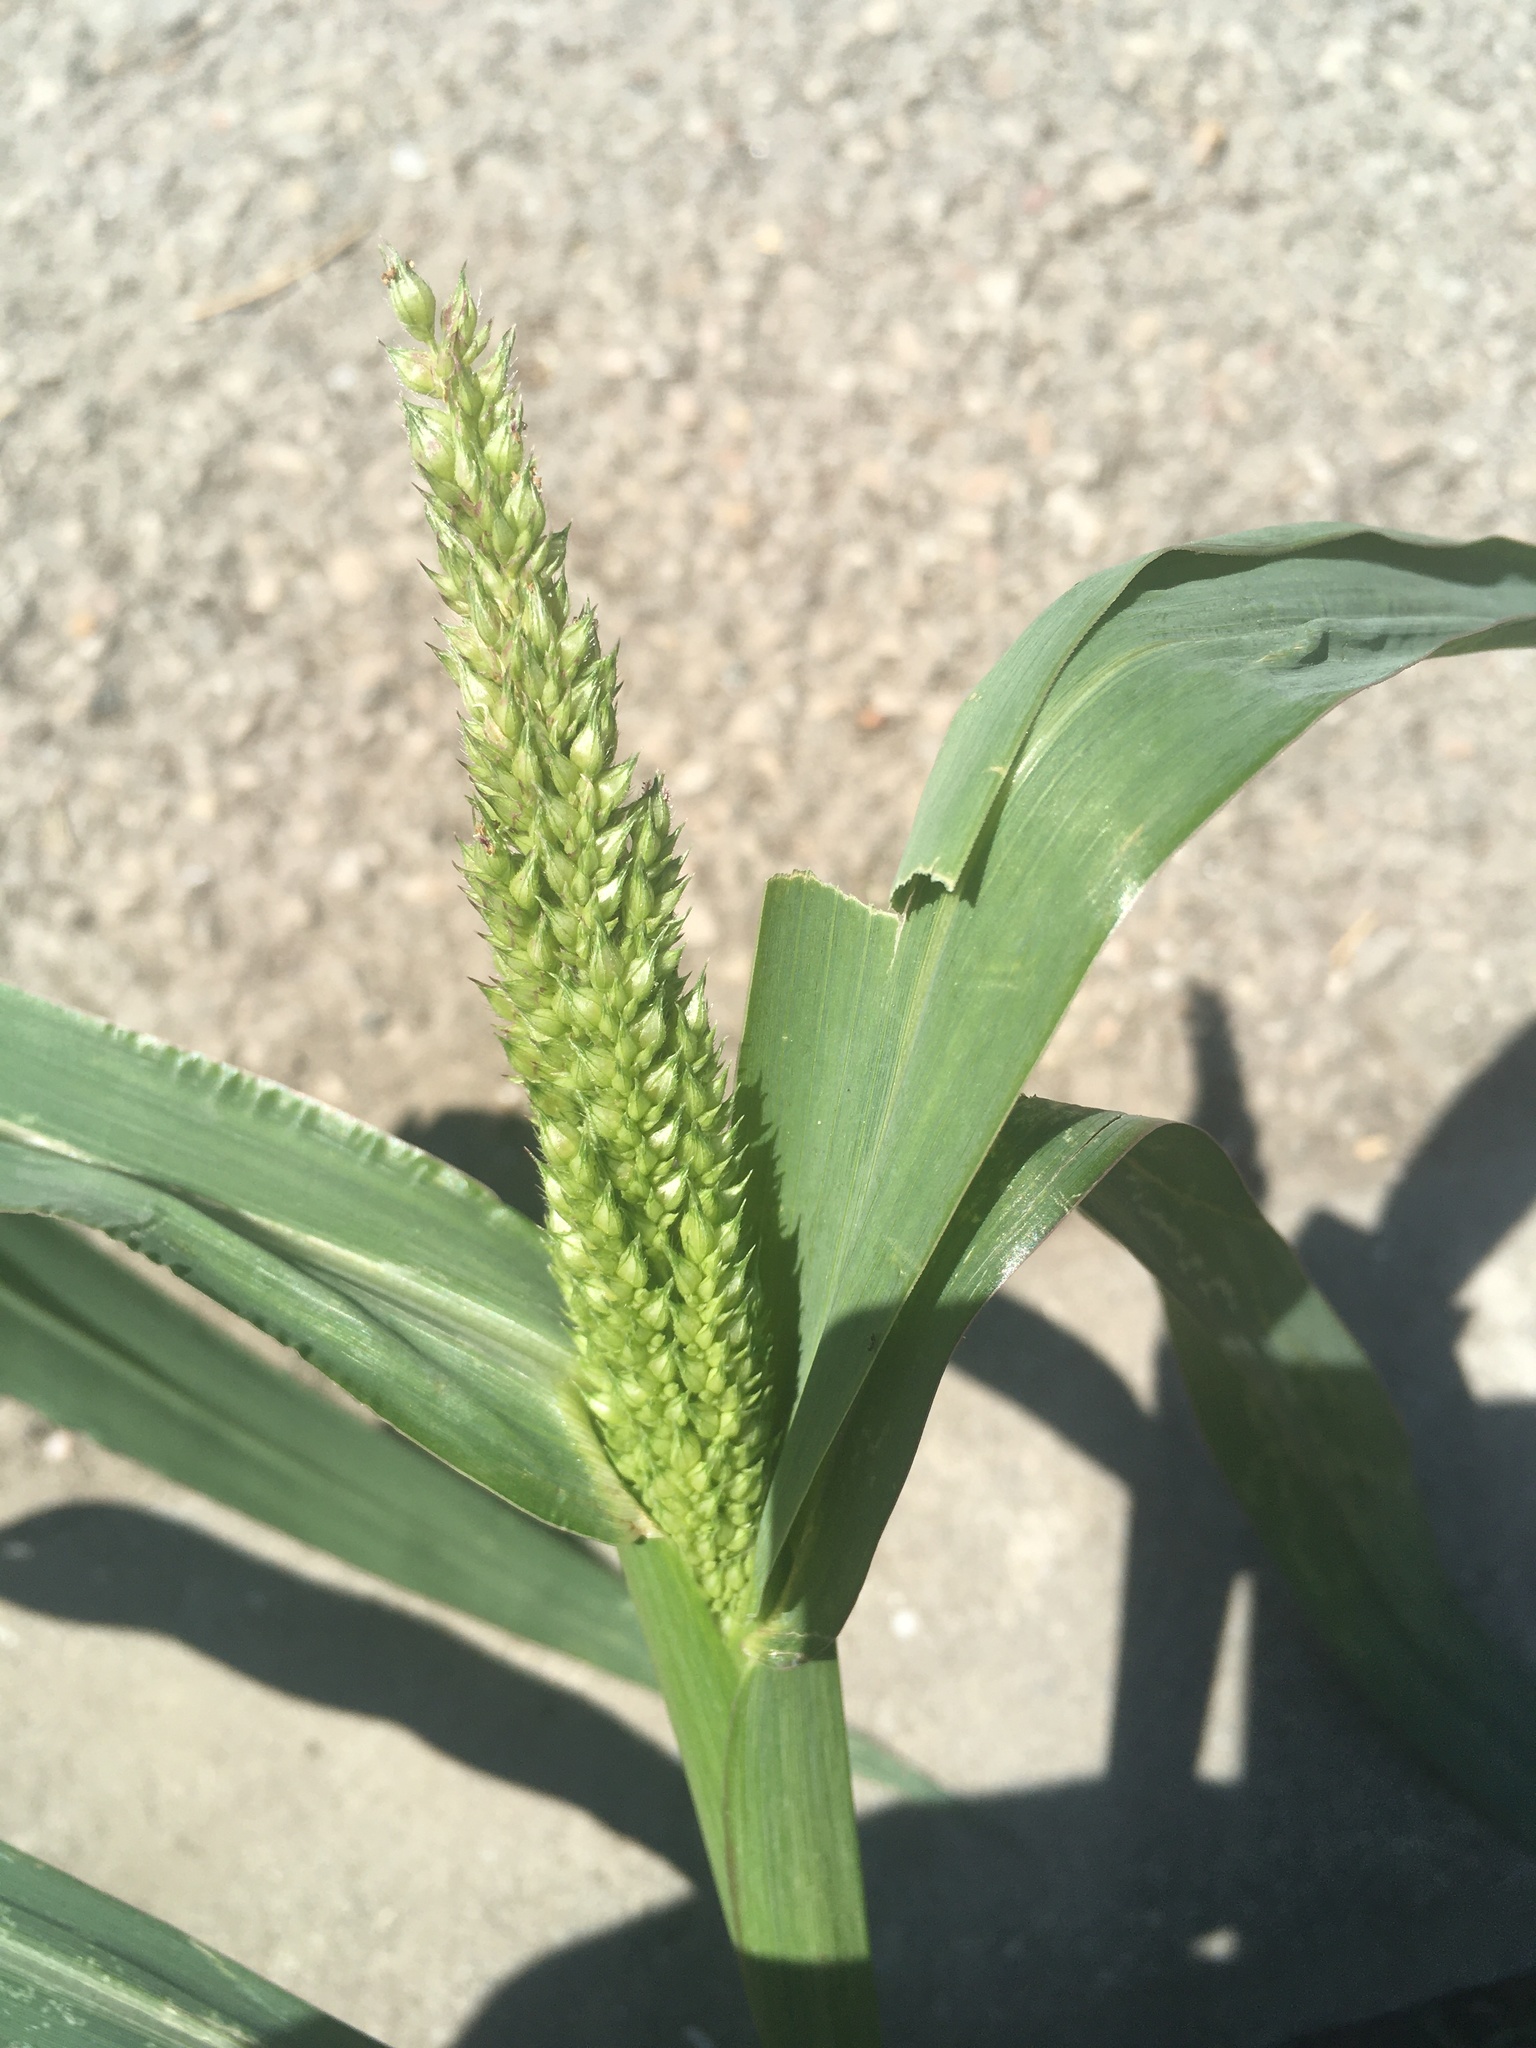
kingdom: Plantae
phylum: Tracheophyta
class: Liliopsida
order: Poales
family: Poaceae
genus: Echinochloa
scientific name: Echinochloa crus-galli
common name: Cockspur
